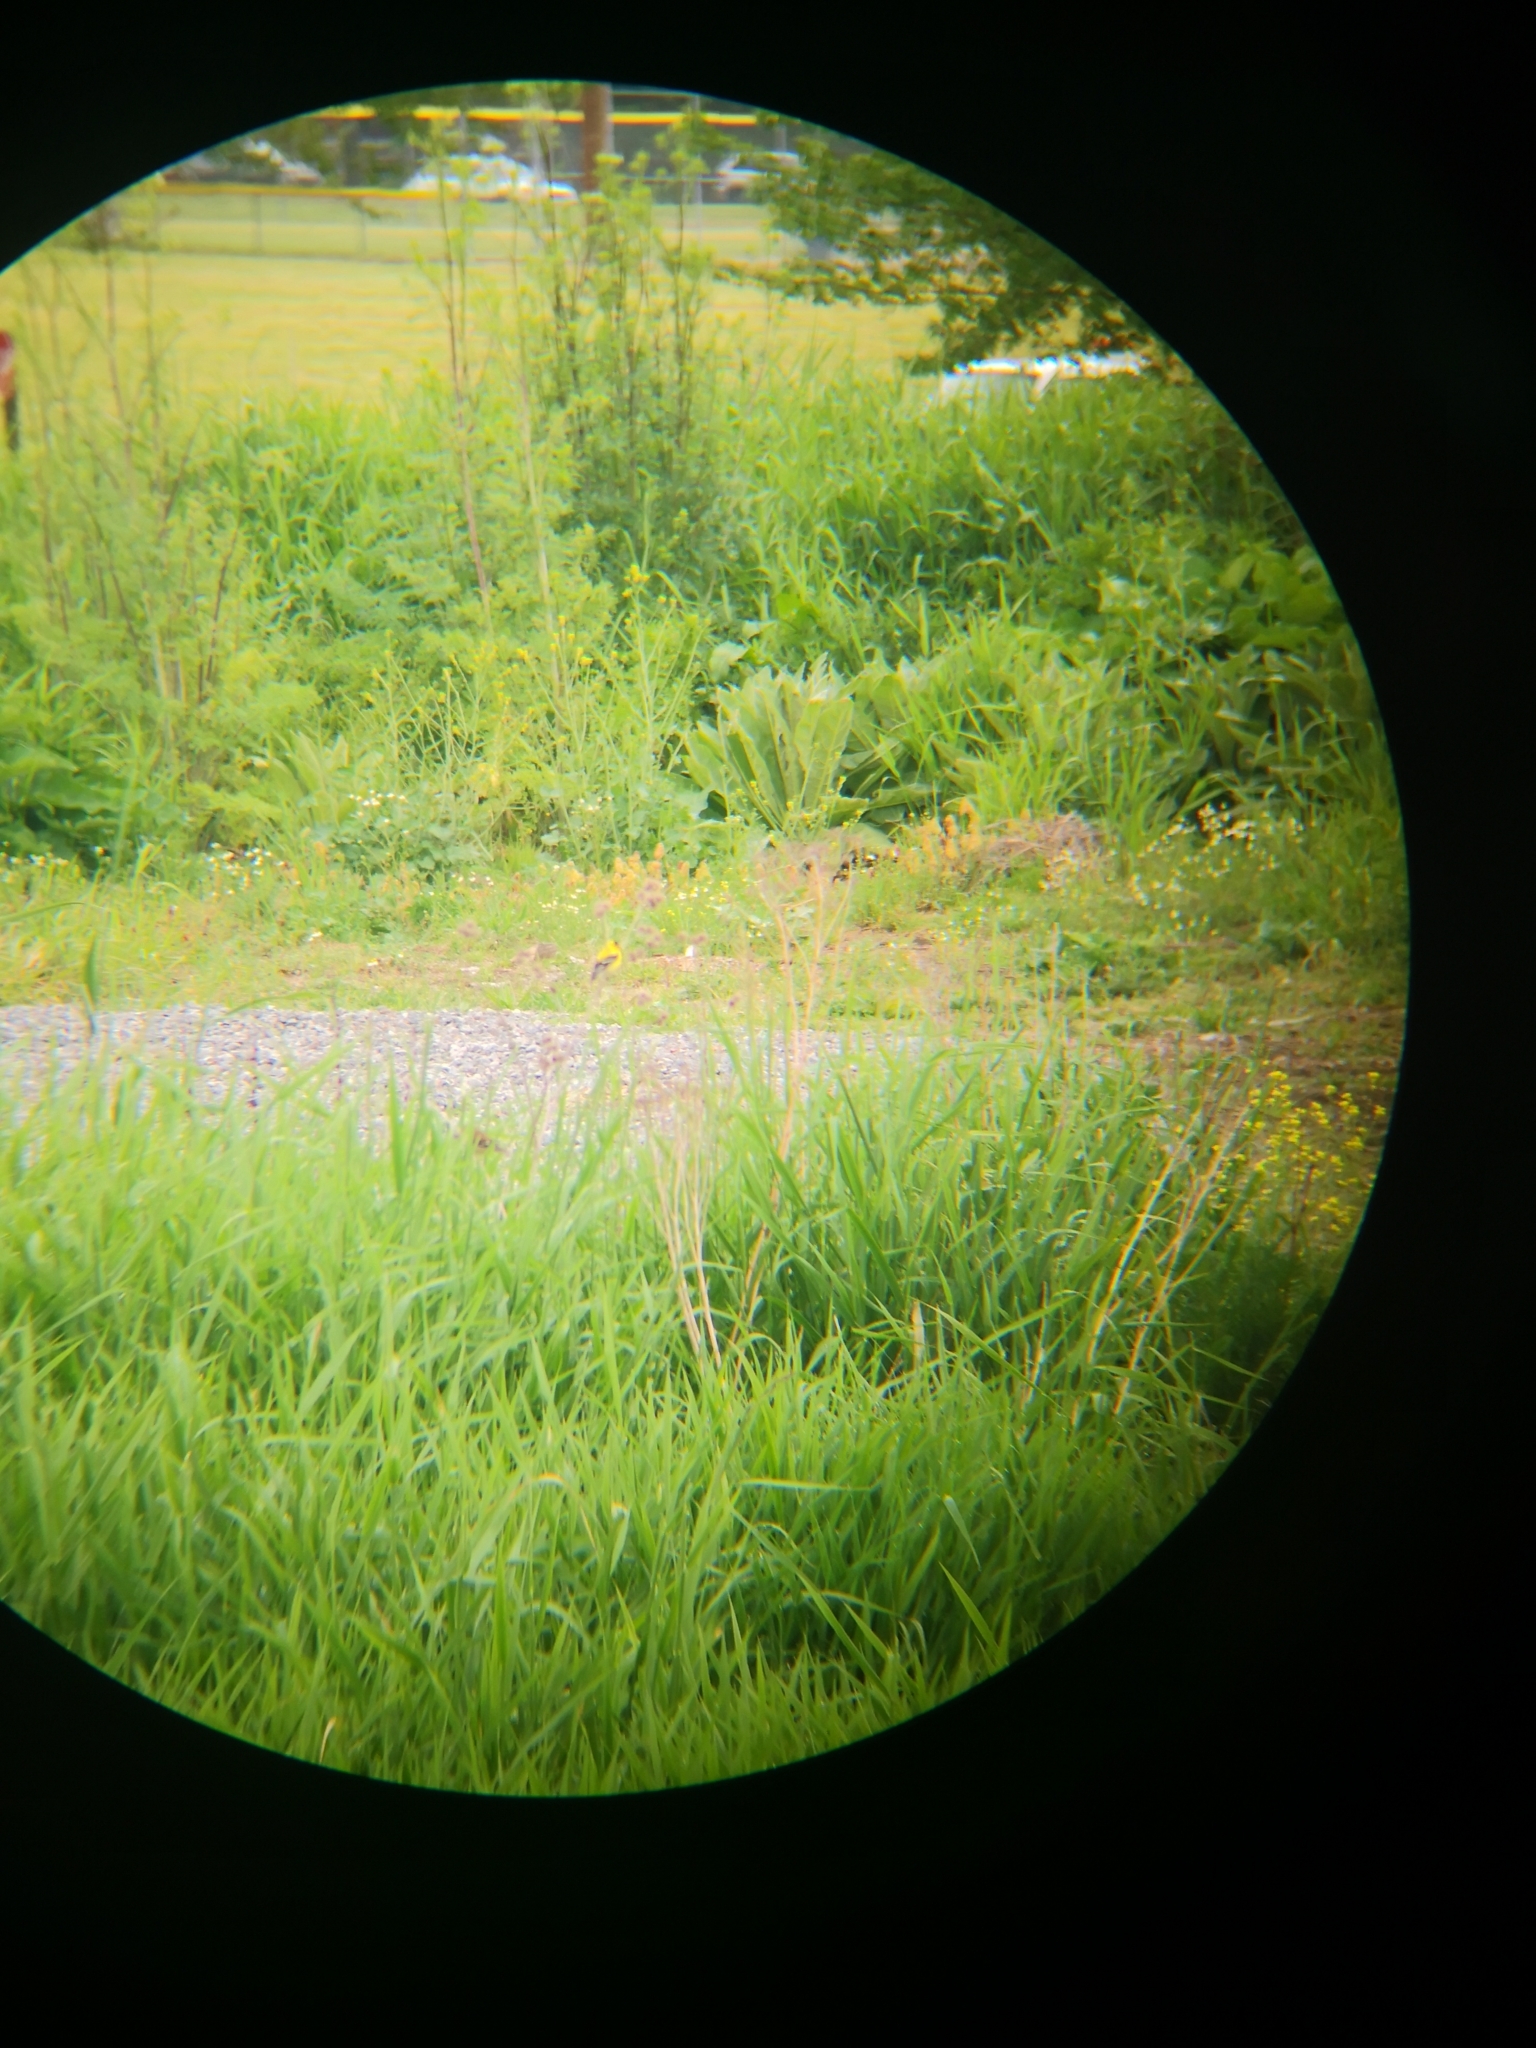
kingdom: Animalia
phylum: Chordata
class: Aves
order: Passeriformes
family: Fringillidae
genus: Spinus
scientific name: Spinus tristis
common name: American goldfinch
